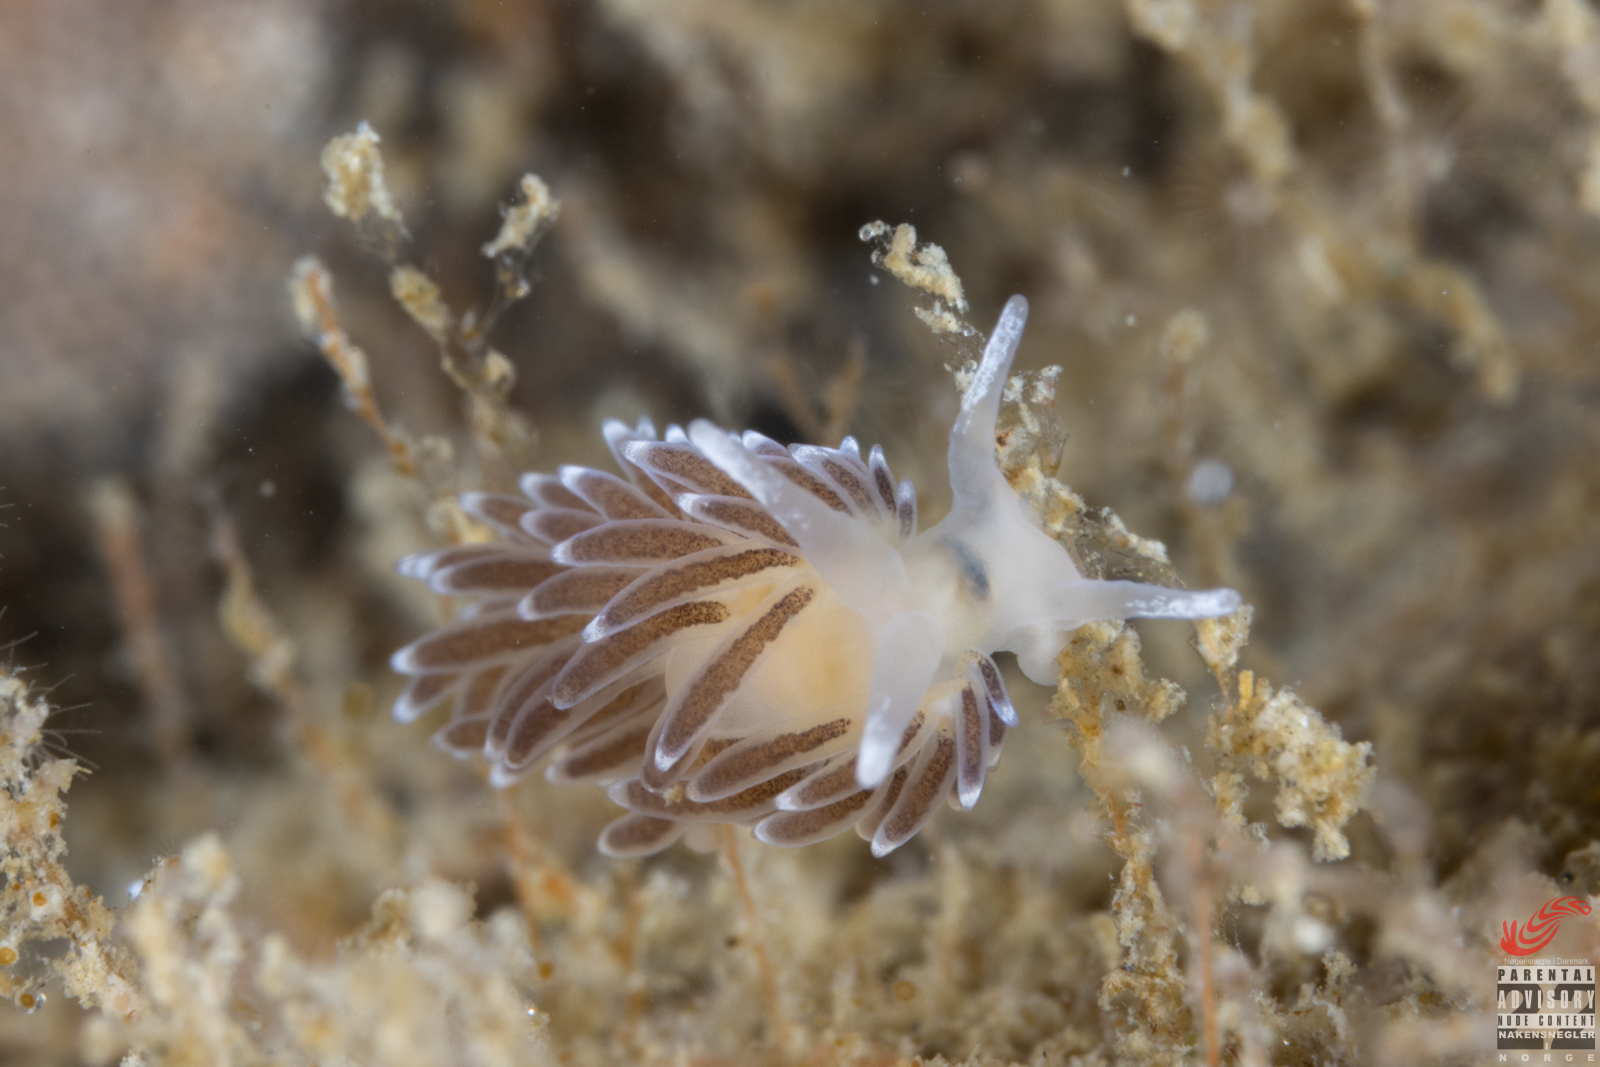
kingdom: Animalia
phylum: Mollusca
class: Gastropoda
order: Nudibranchia
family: Cuthonellidae
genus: Cuthonella
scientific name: Cuthonella concinna
